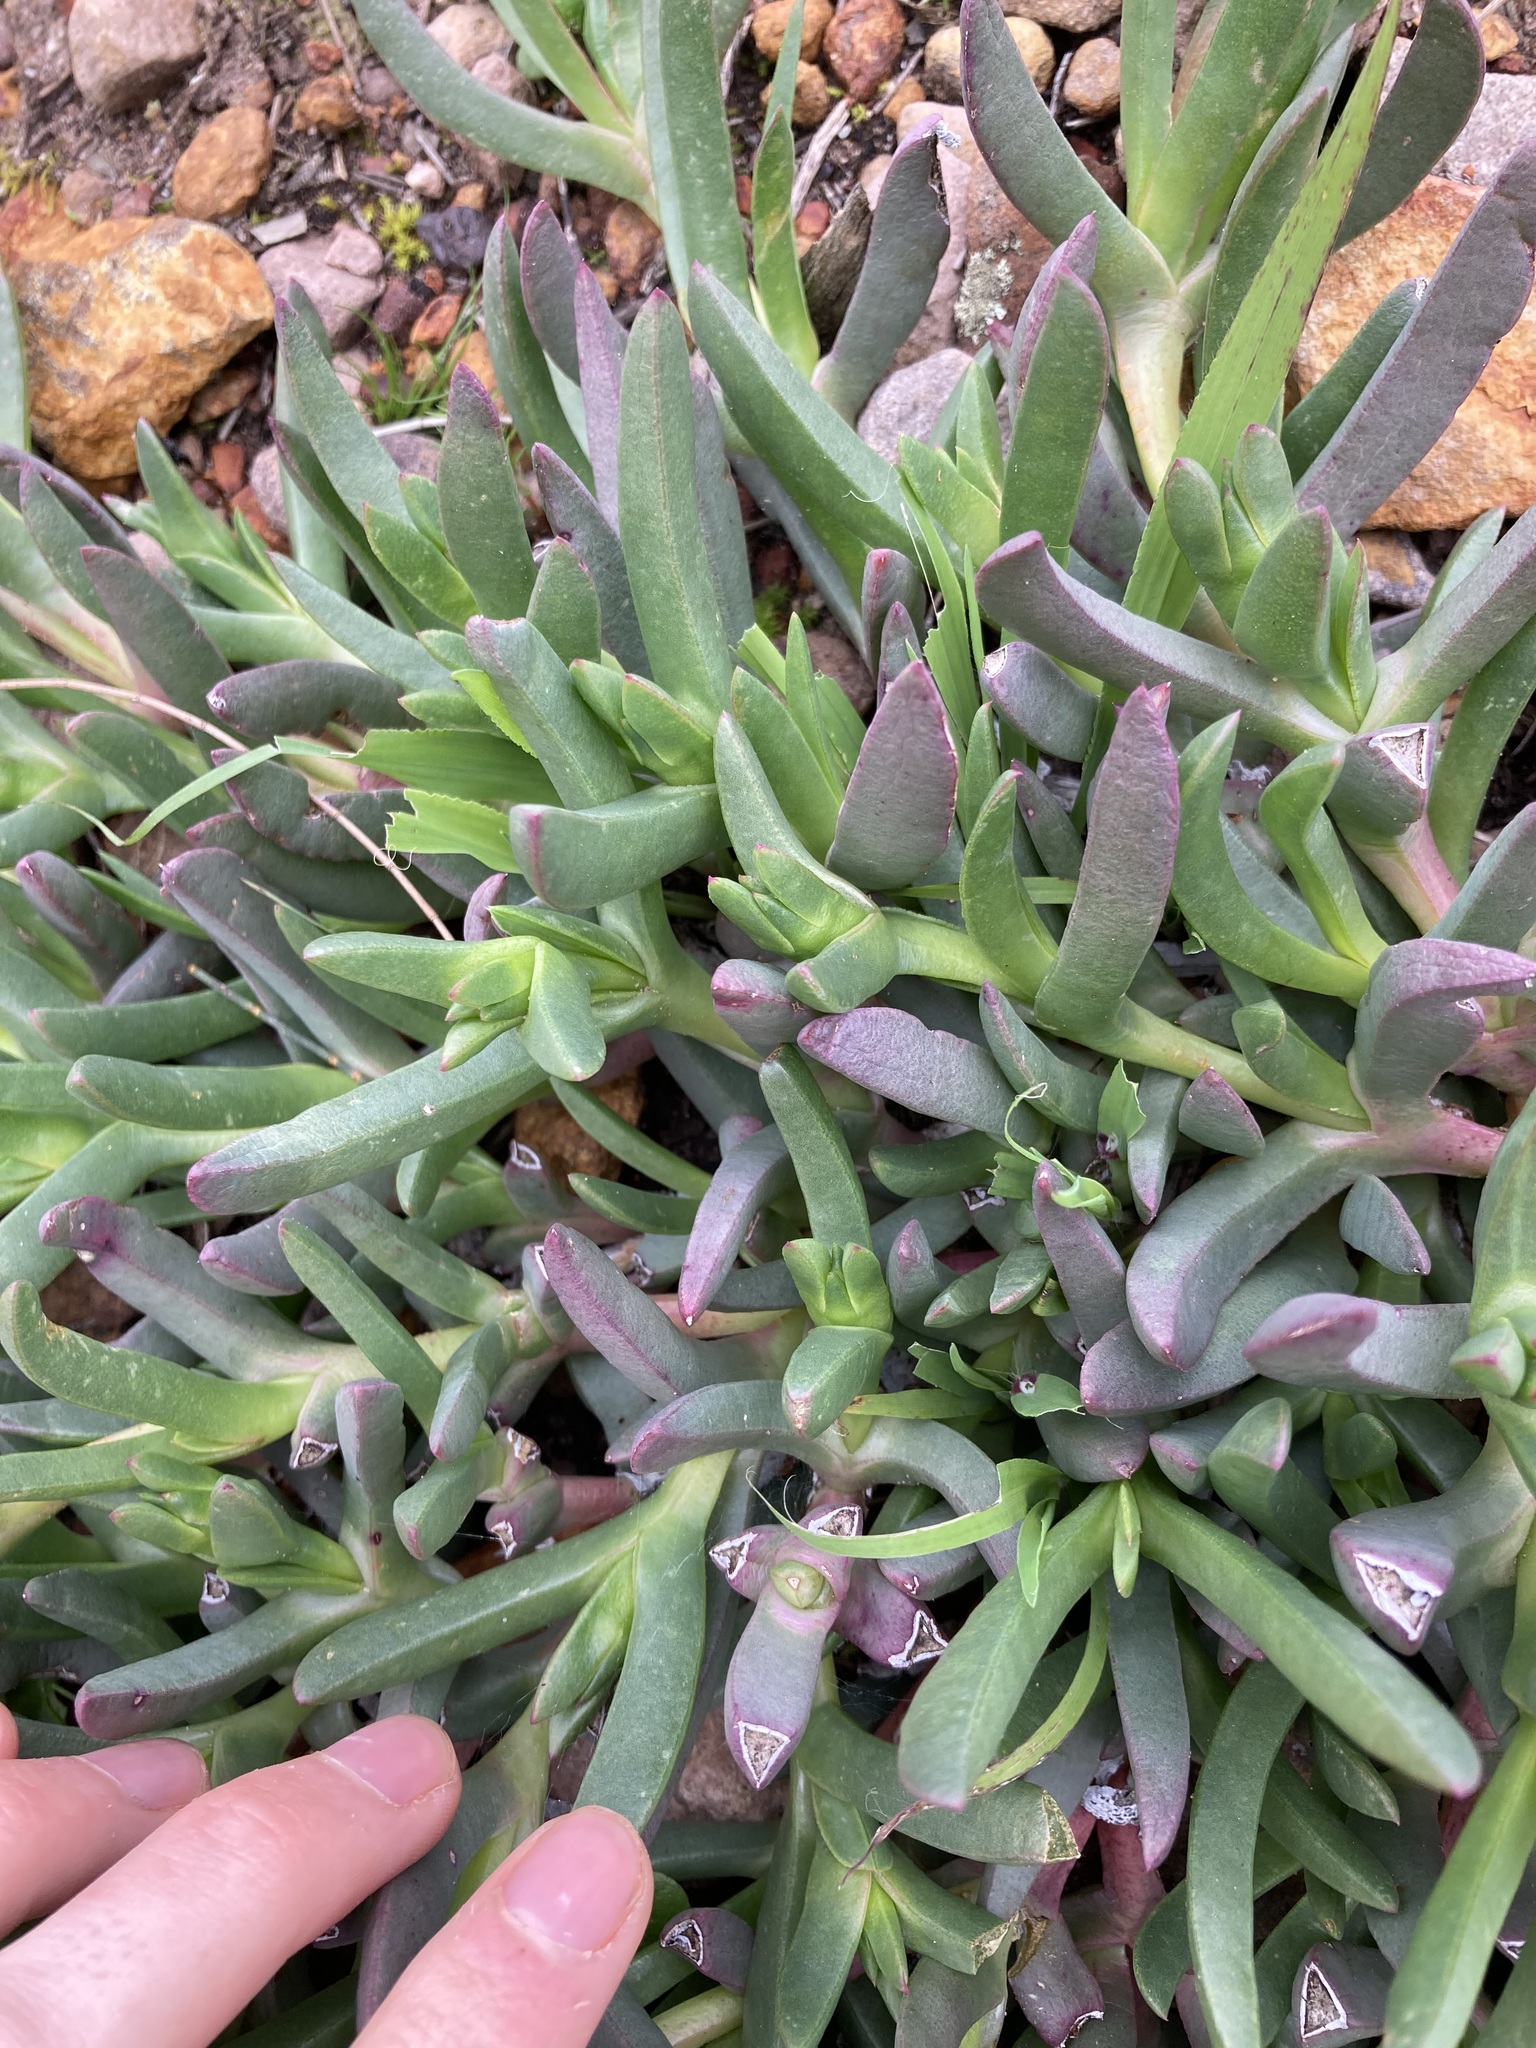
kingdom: Plantae
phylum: Tracheophyta
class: Magnoliopsida
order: Caryophyllales
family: Aizoaceae
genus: Carpobrotus
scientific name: Carpobrotus modestus
